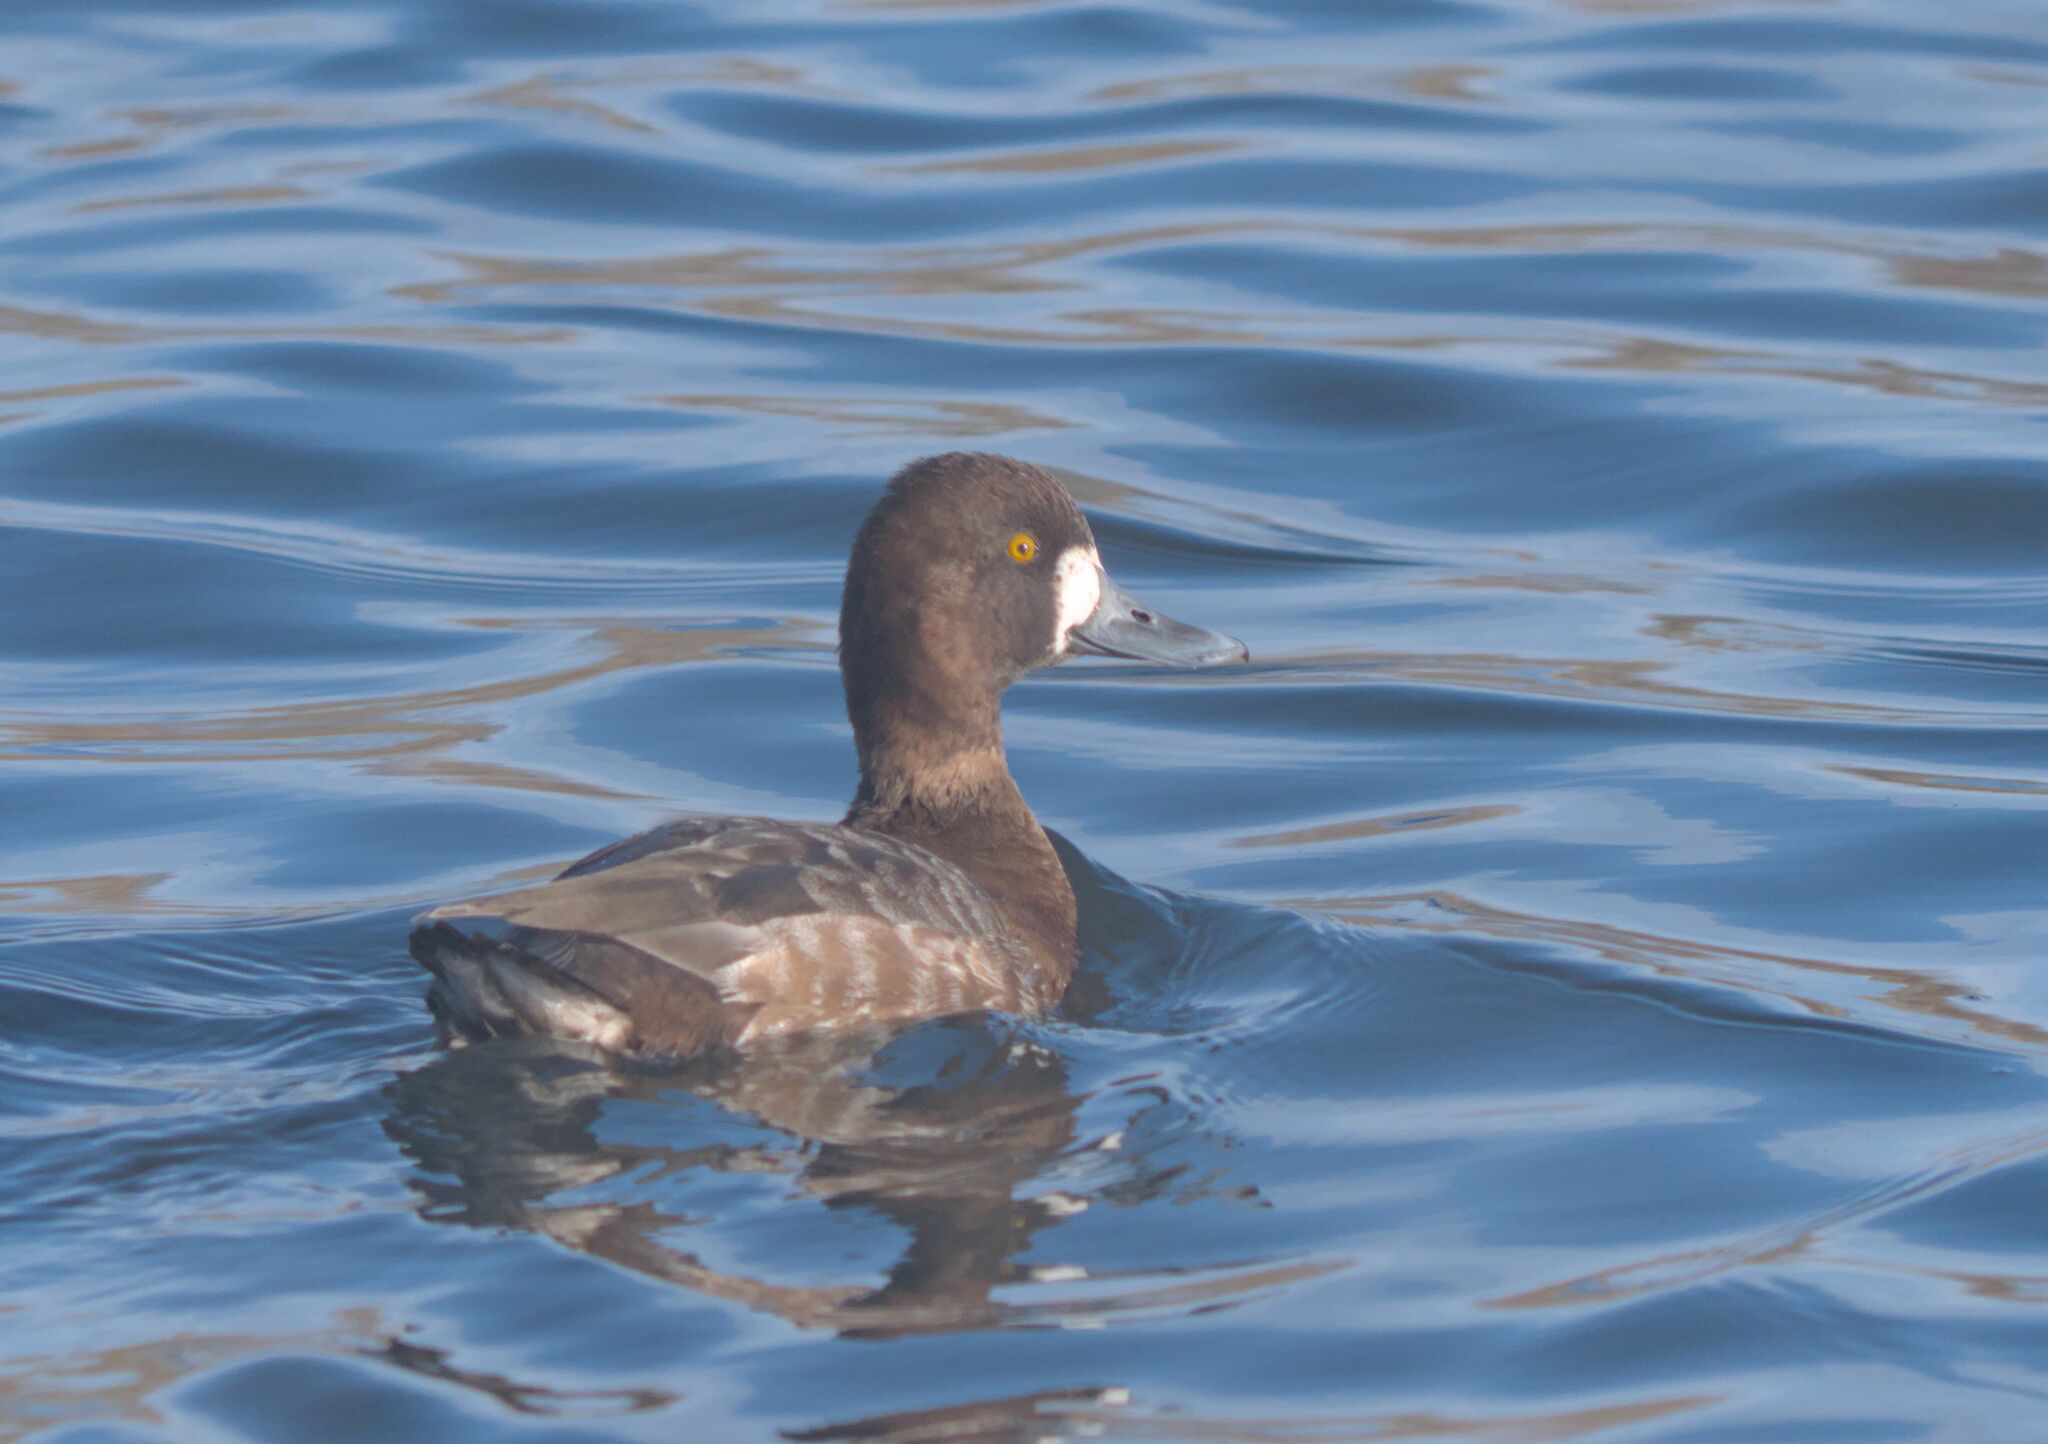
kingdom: Animalia
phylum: Chordata
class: Aves
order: Anseriformes
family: Anatidae
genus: Aythya
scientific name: Aythya affinis
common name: Lesser scaup
